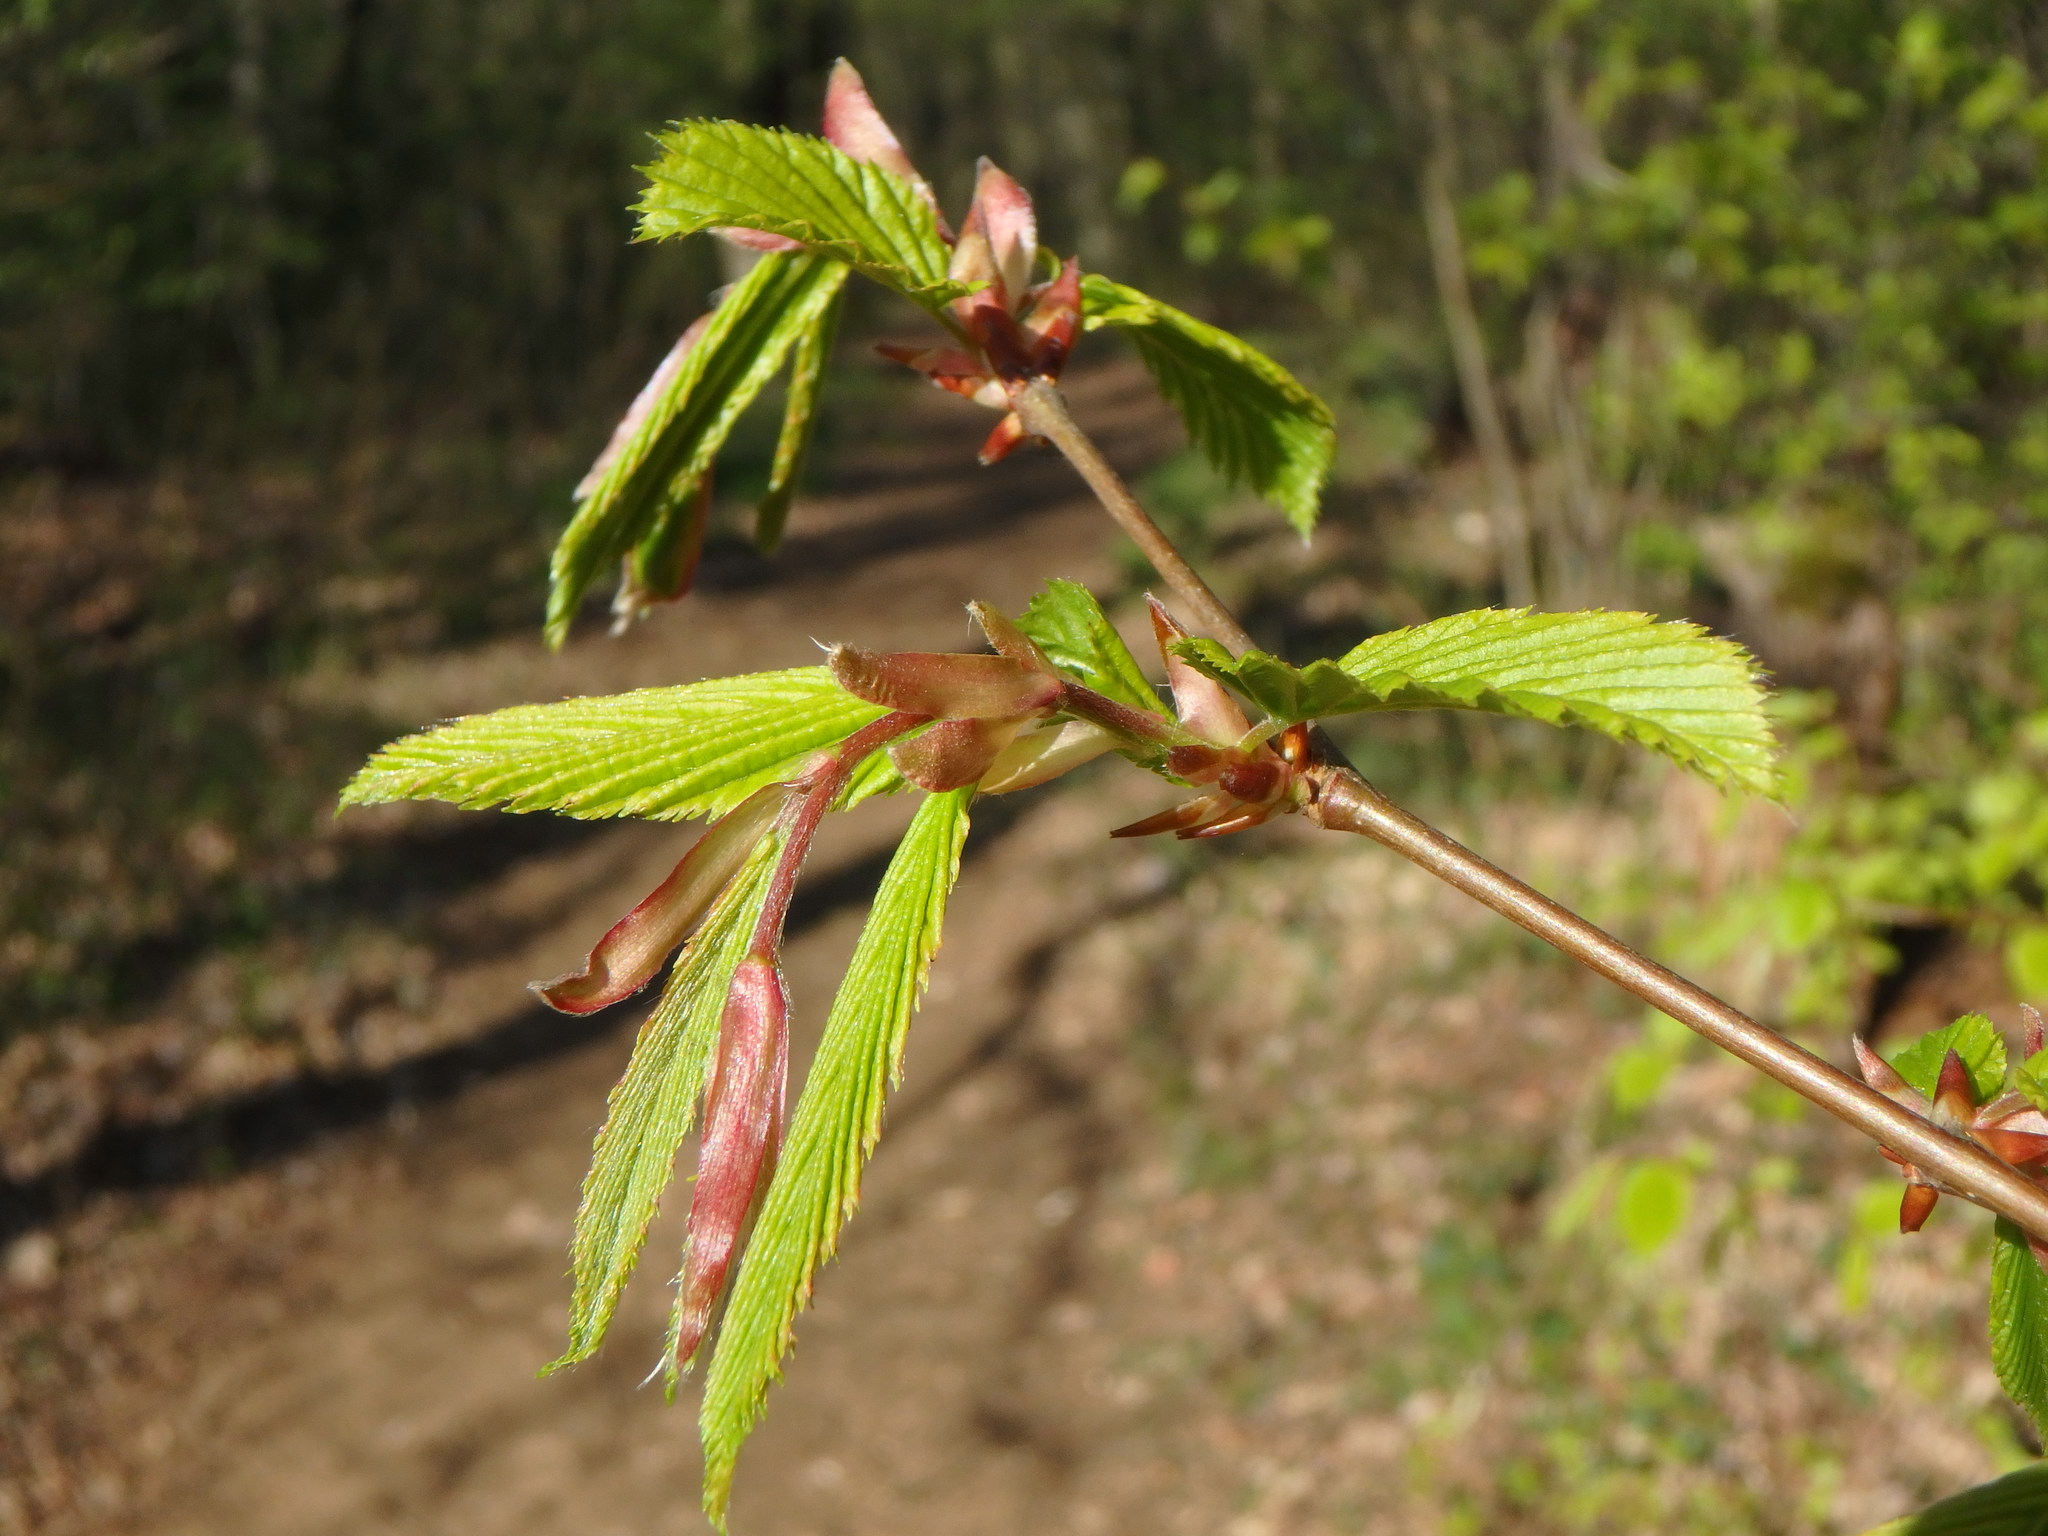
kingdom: Plantae
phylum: Tracheophyta
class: Magnoliopsida
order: Fagales
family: Betulaceae
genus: Carpinus
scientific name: Carpinus betulus
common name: Hornbeam
